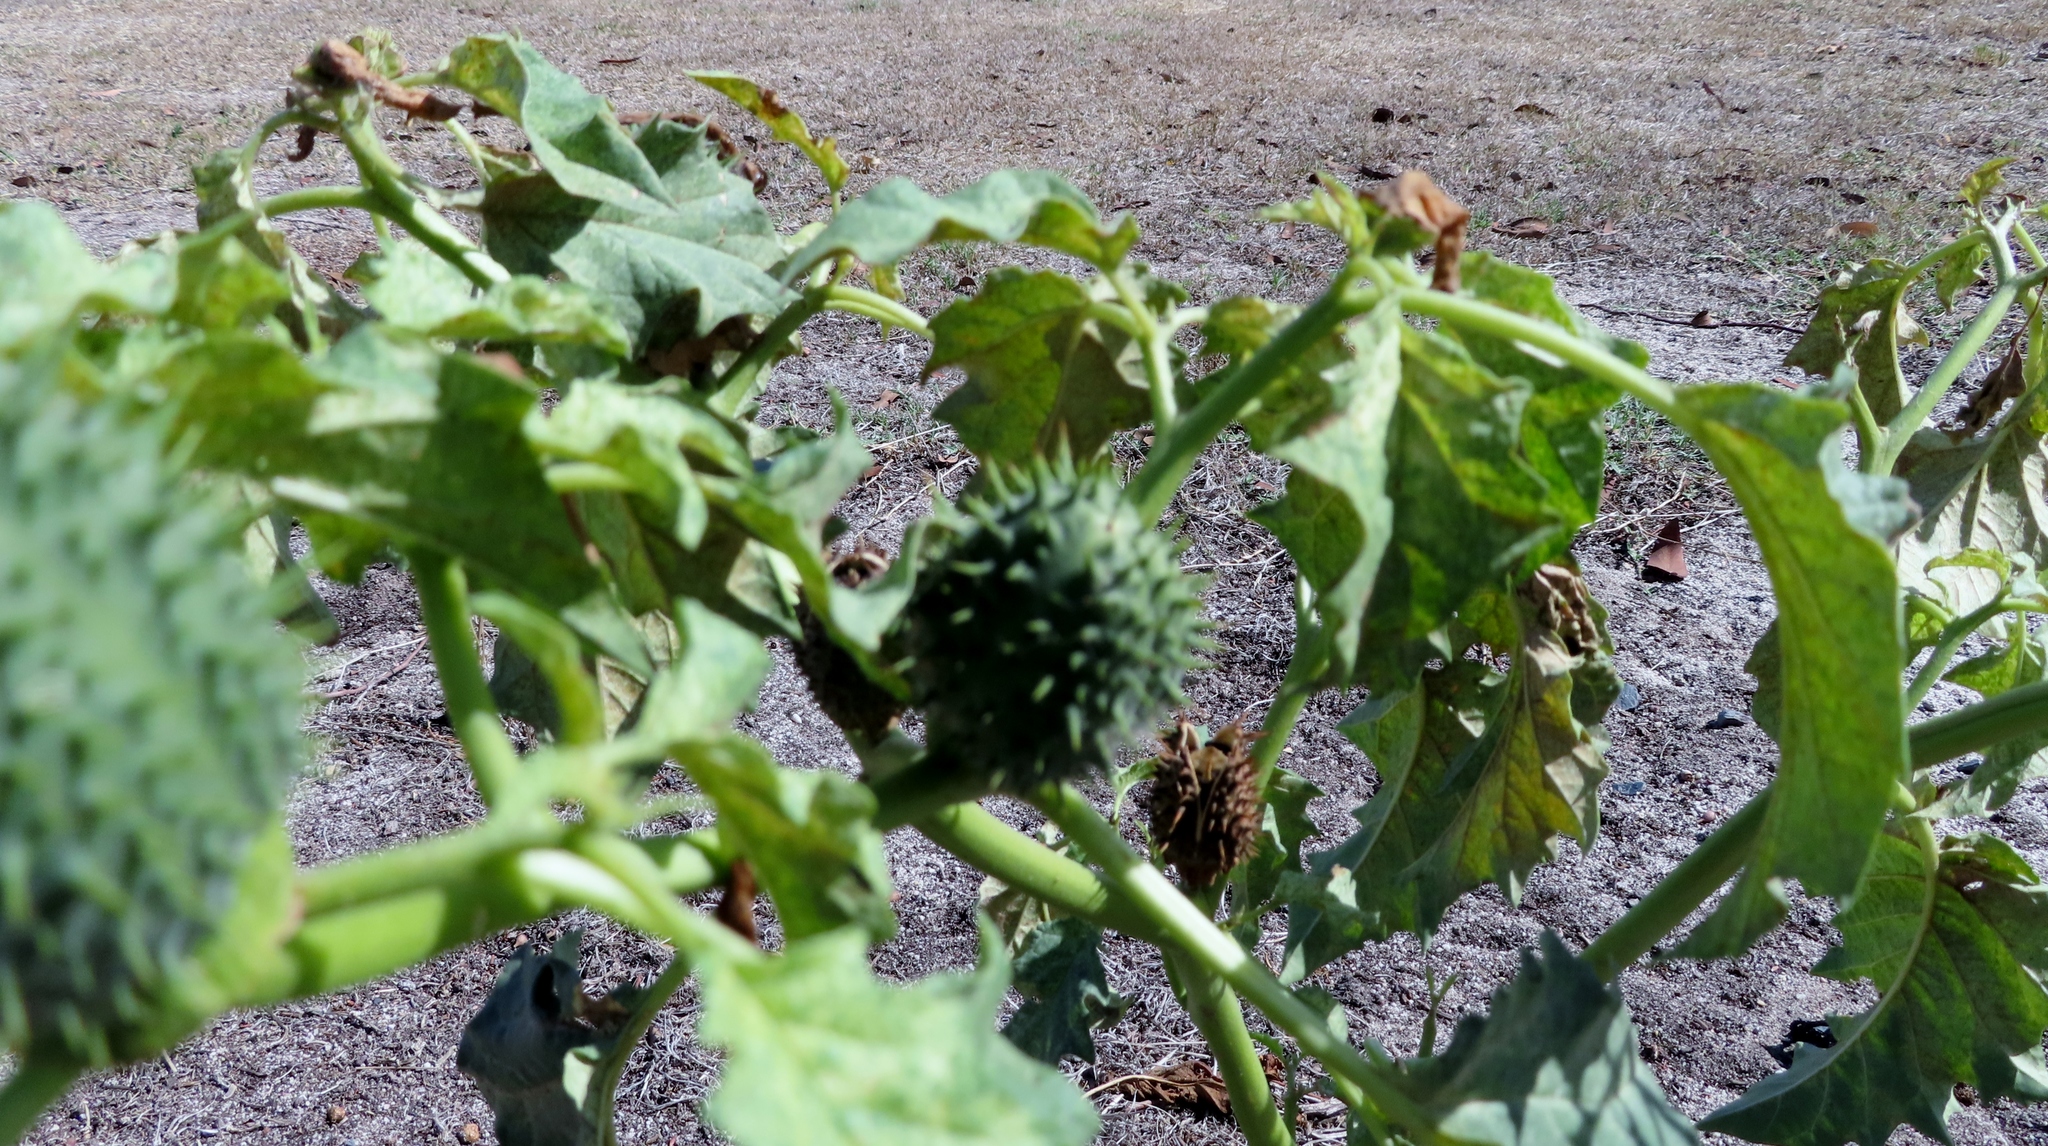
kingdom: Plantae
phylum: Tracheophyta
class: Magnoliopsida
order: Solanales
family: Solanaceae
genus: Datura
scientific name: Datura stramonium
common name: Thorn-apple
